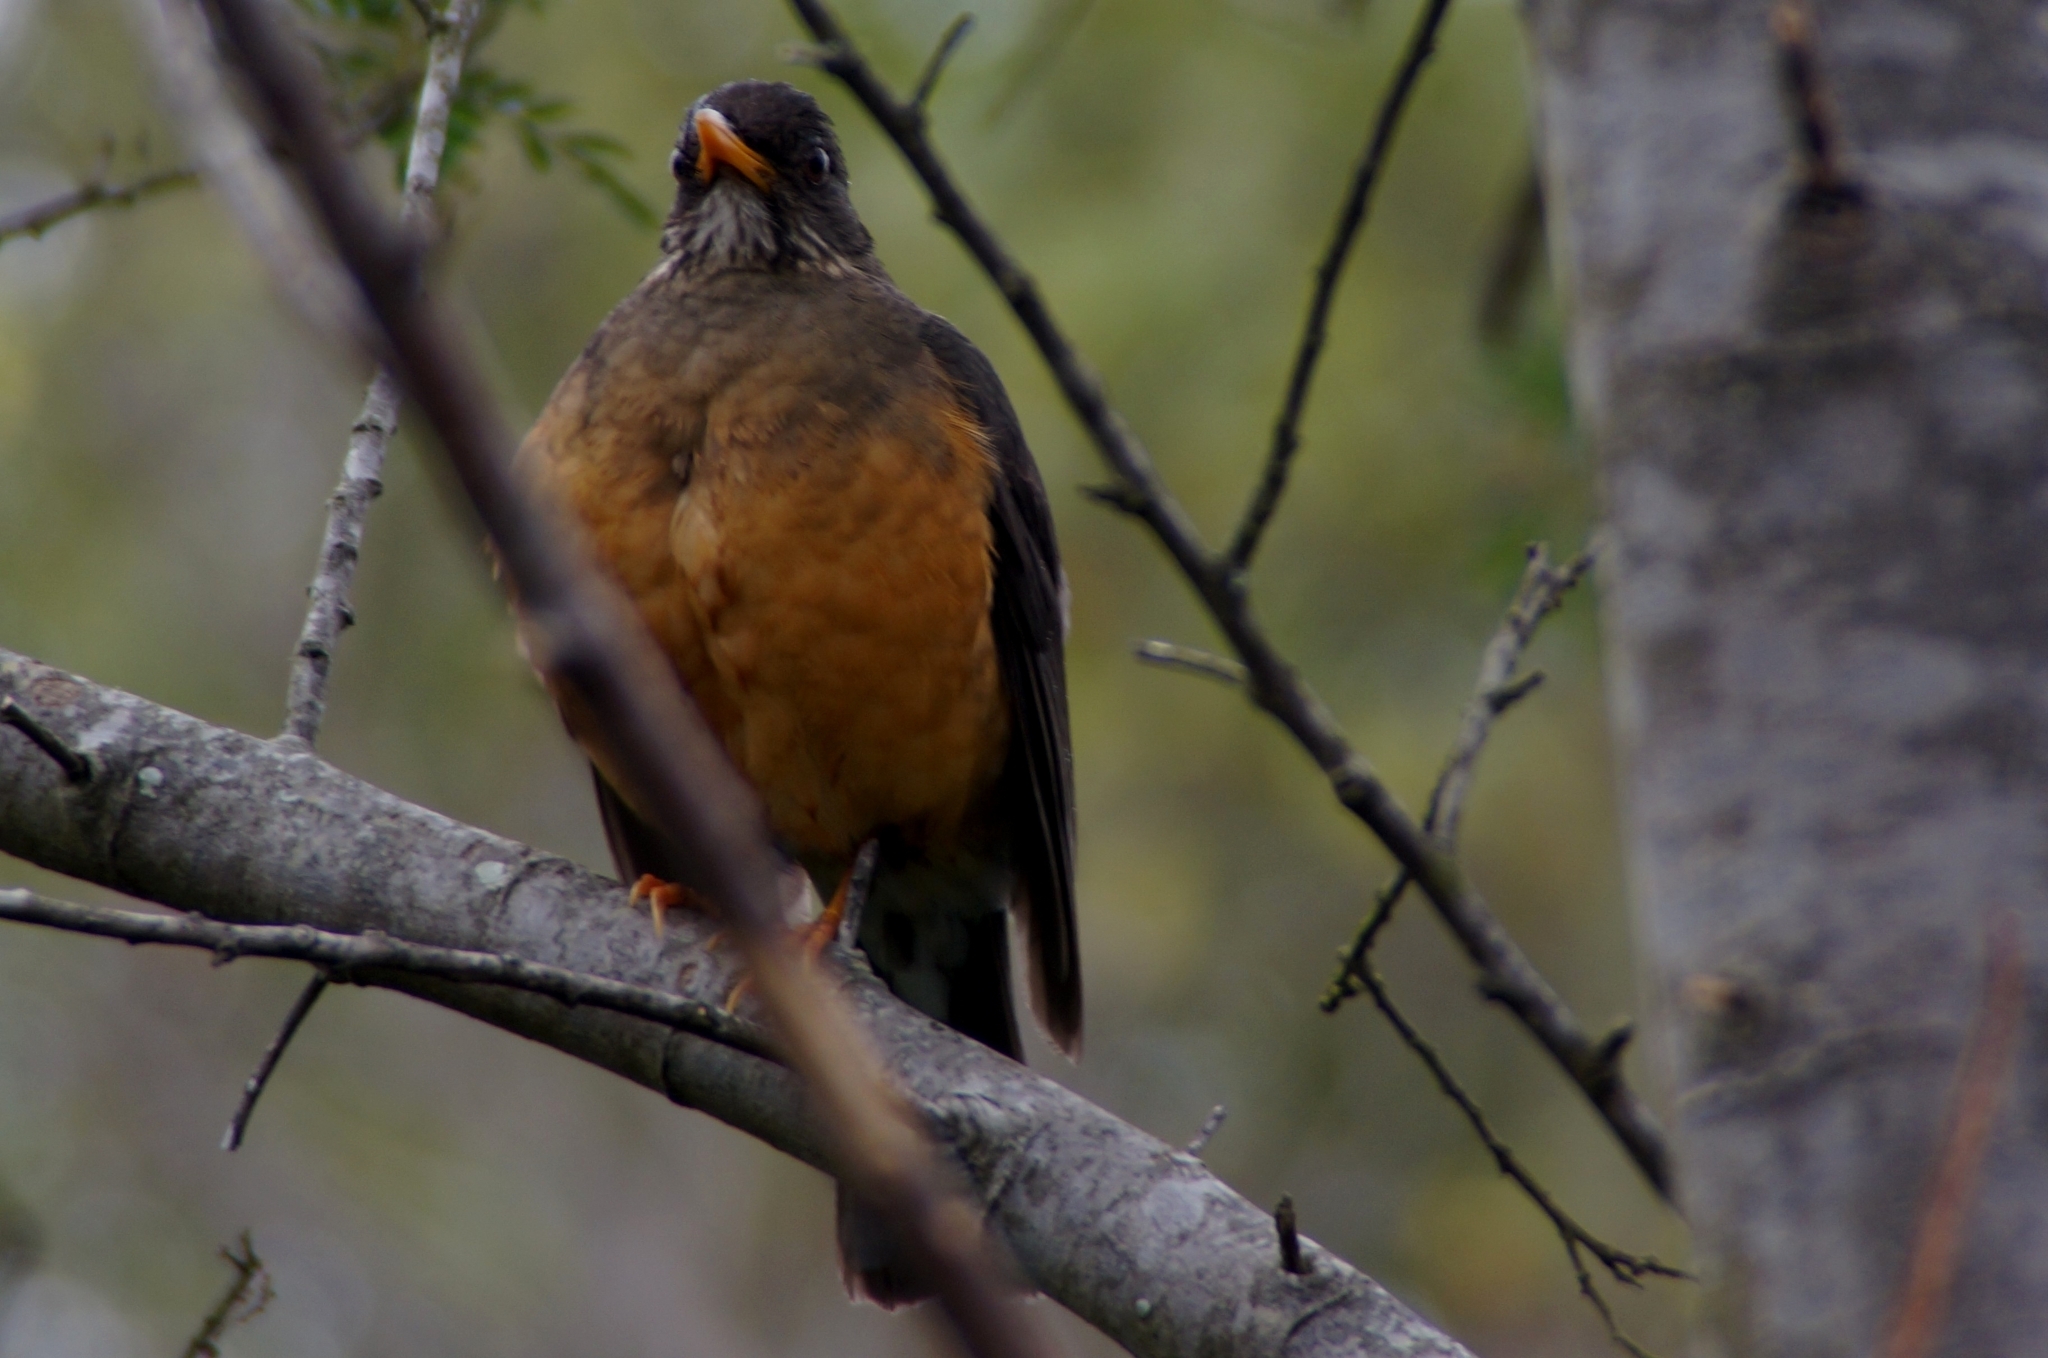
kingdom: Animalia
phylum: Chordata
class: Aves
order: Passeriformes
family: Turdidae
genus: Turdus
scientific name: Turdus olivaceus
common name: Olive thrush
